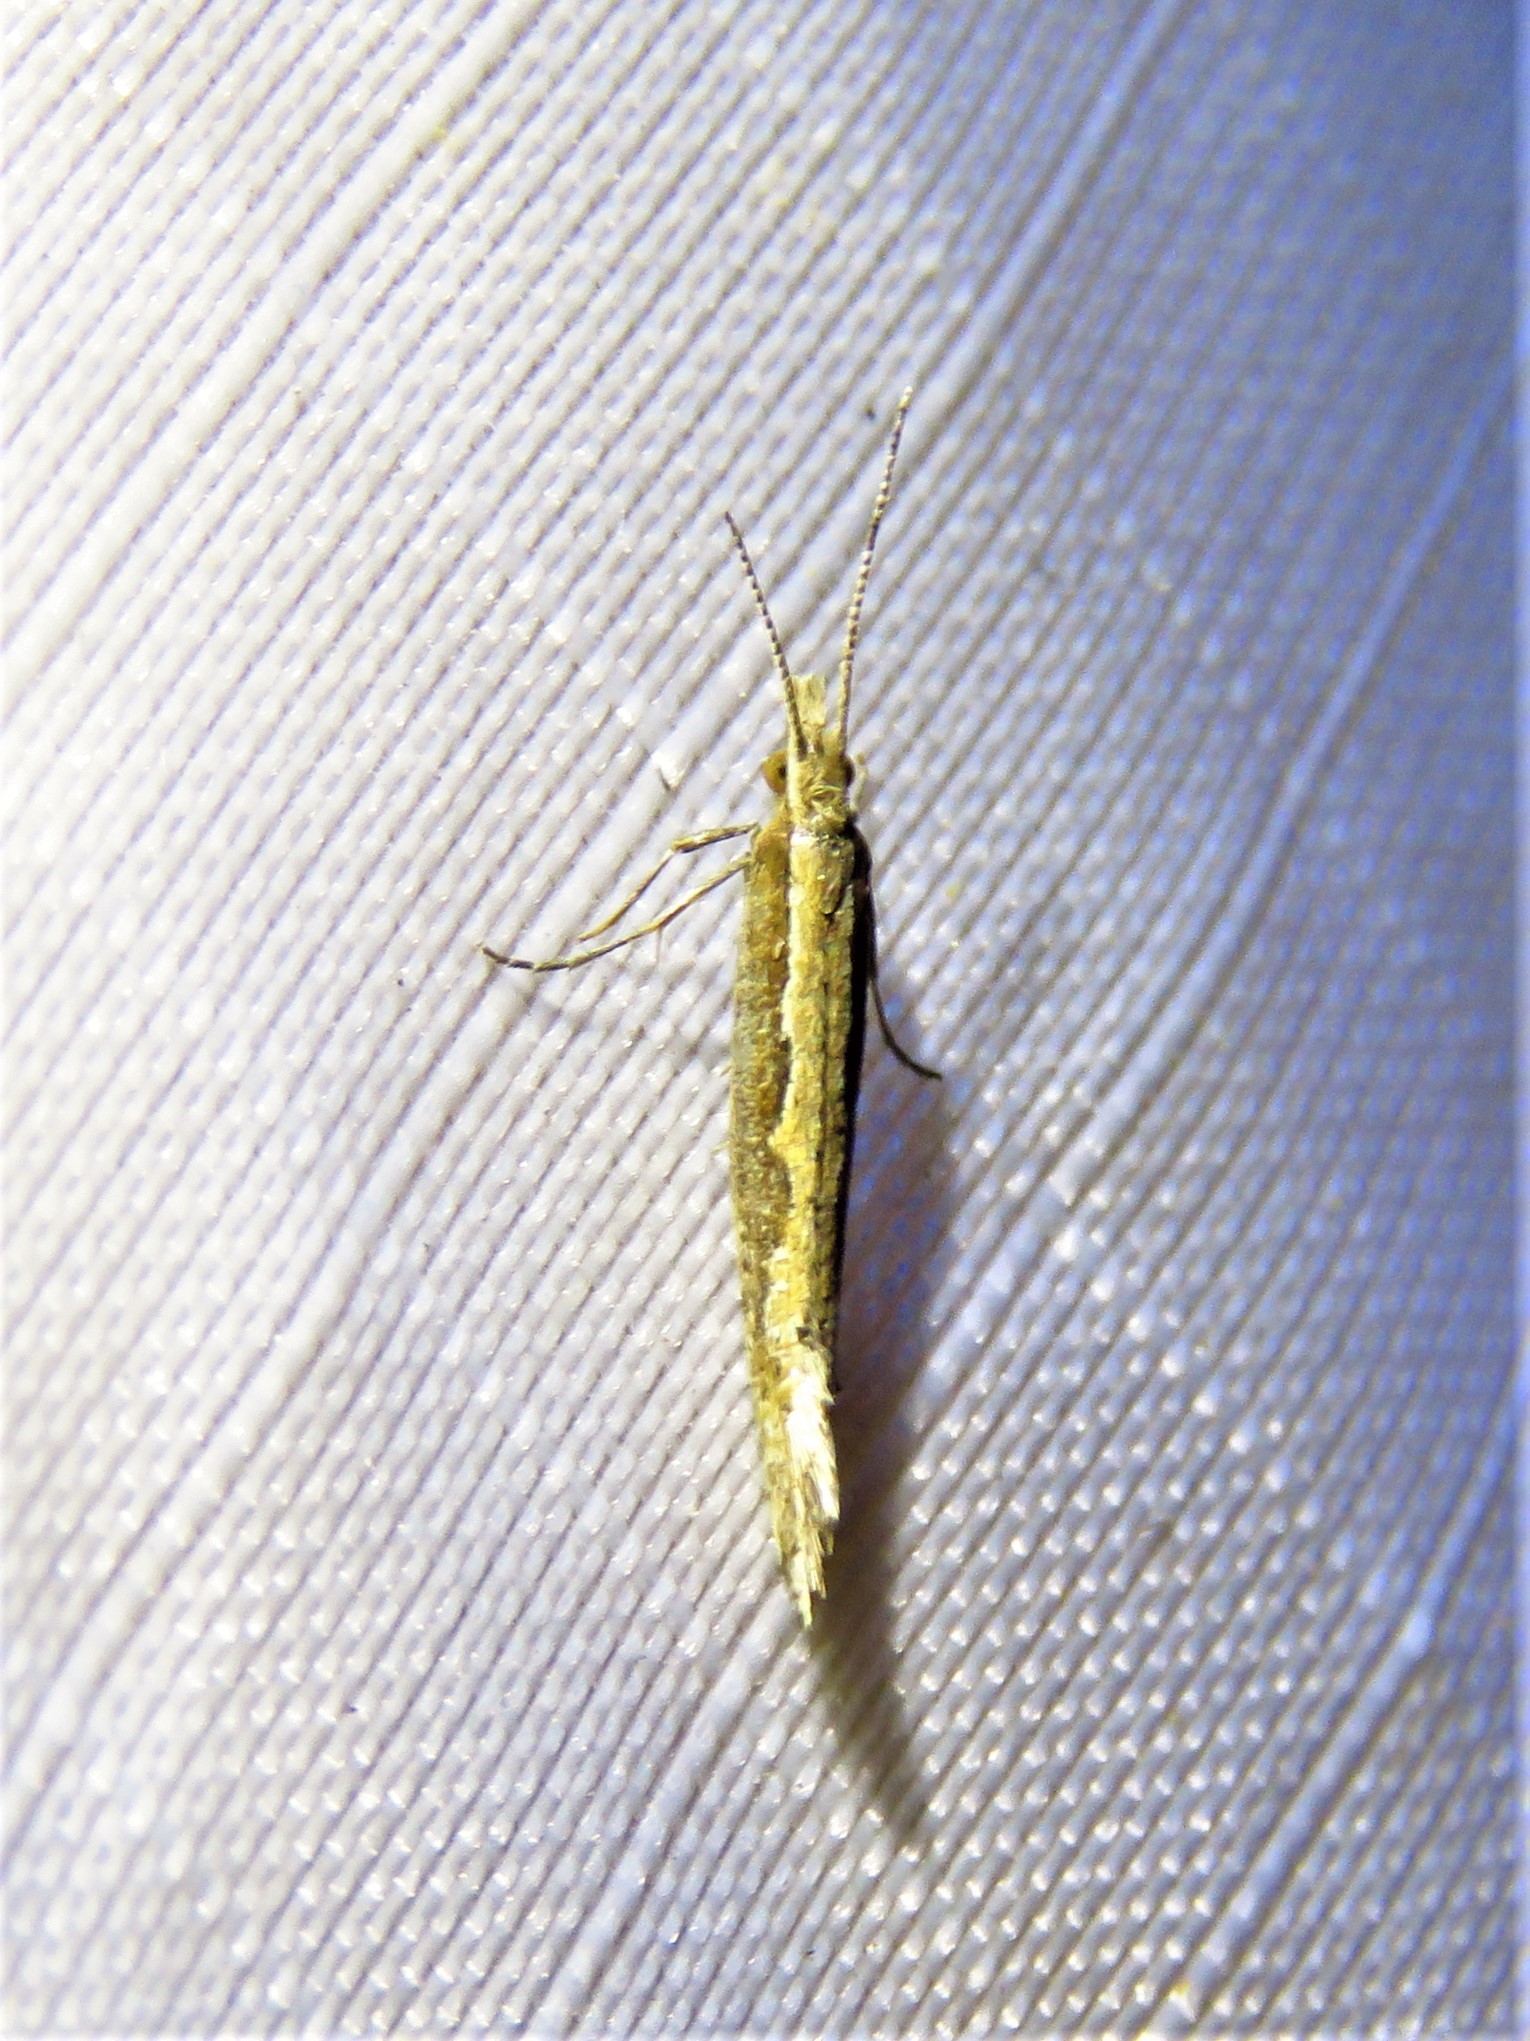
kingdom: Animalia
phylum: Arthropoda
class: Insecta
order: Lepidoptera
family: Plutellidae
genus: Plutella
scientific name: Plutella xylostella
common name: Diamond-back moth
